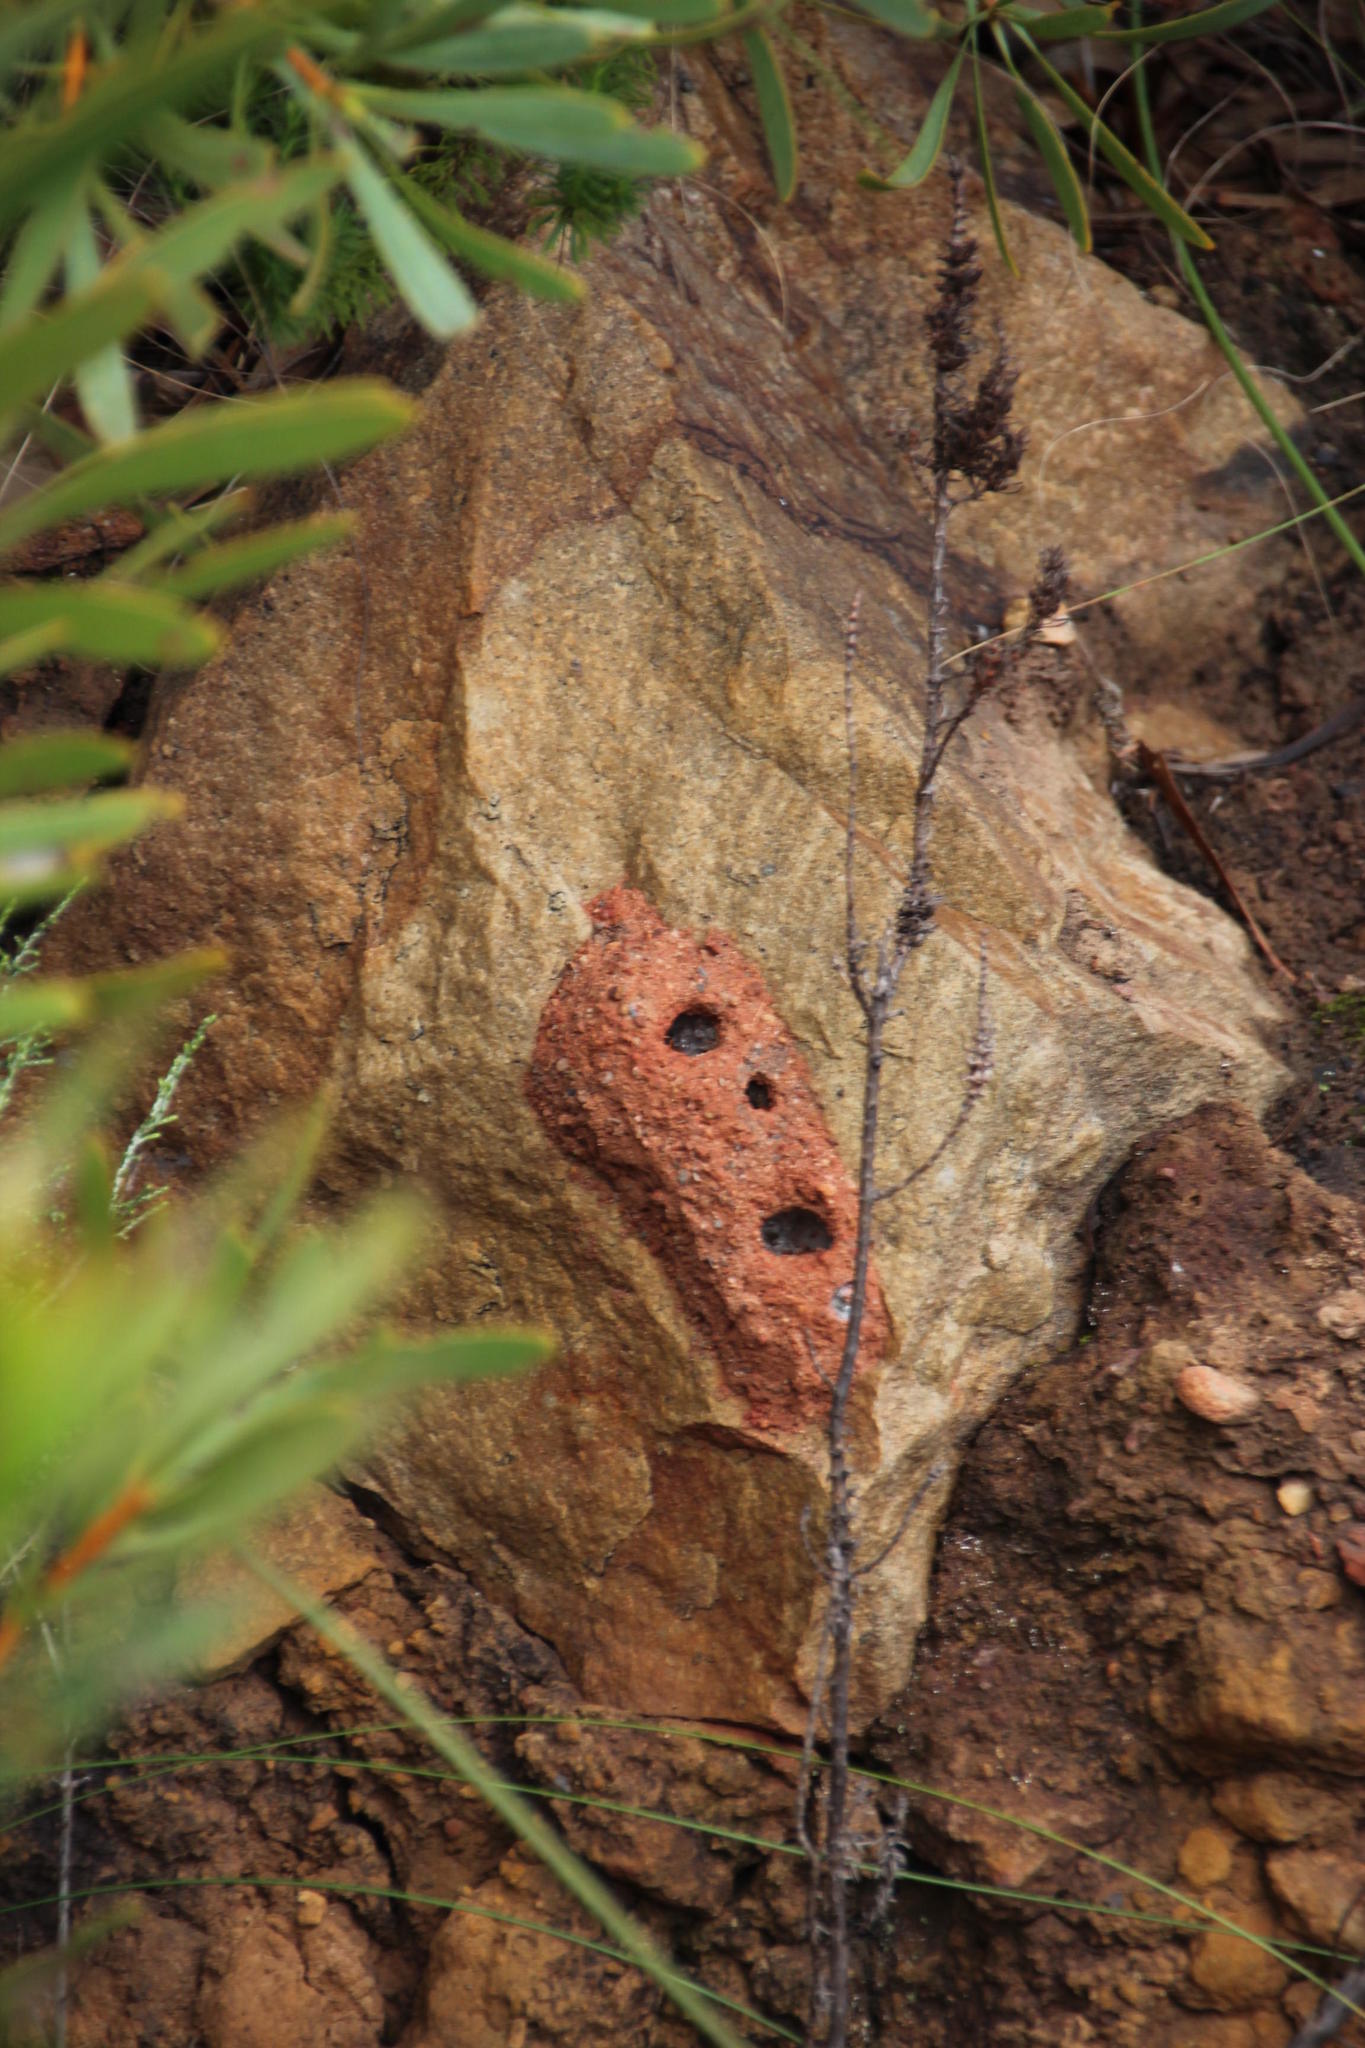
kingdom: Animalia
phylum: Arthropoda
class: Insecta
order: Hymenoptera
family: Eumenidae
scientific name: Eumenidae
